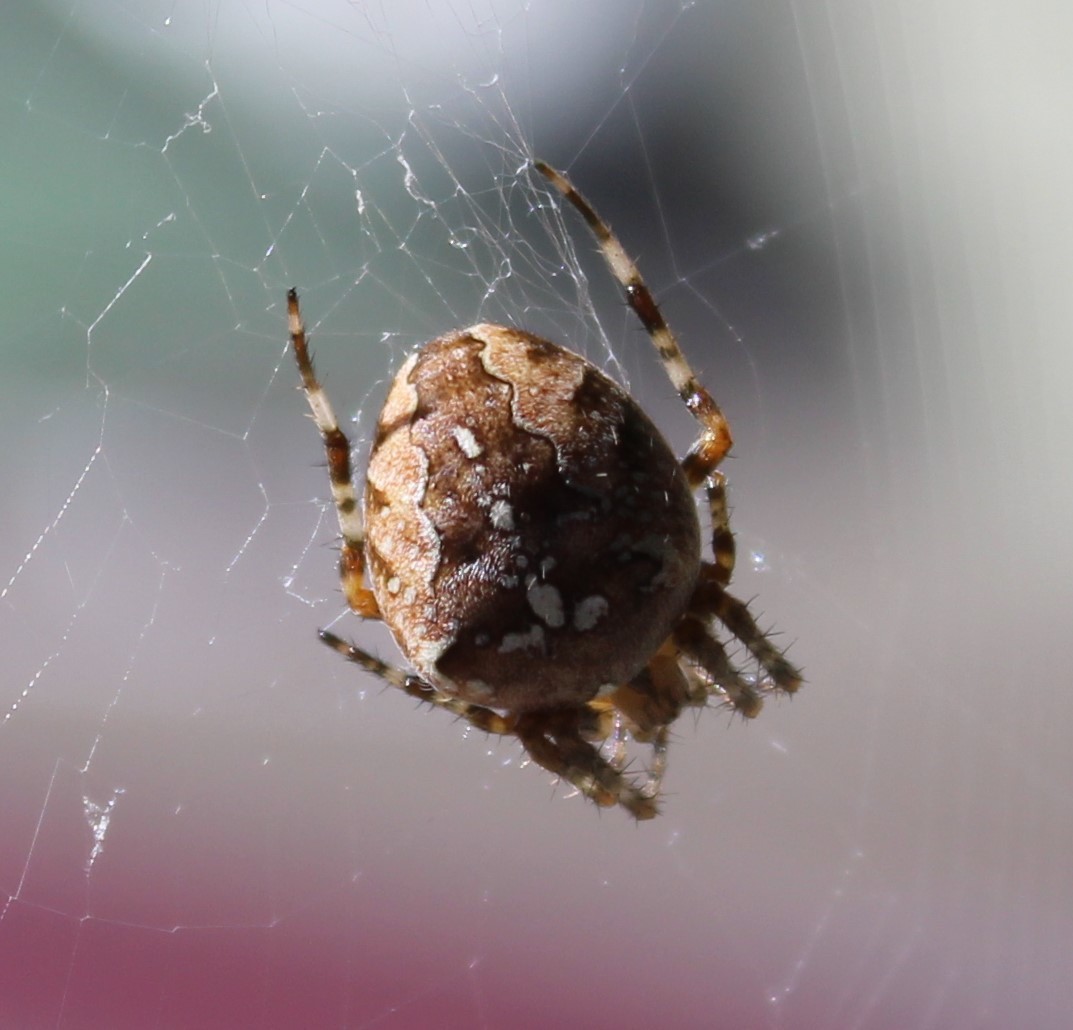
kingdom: Animalia
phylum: Arthropoda
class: Arachnida
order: Araneae
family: Araneidae
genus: Araneus
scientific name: Araneus diadematus
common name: Cross orbweaver
